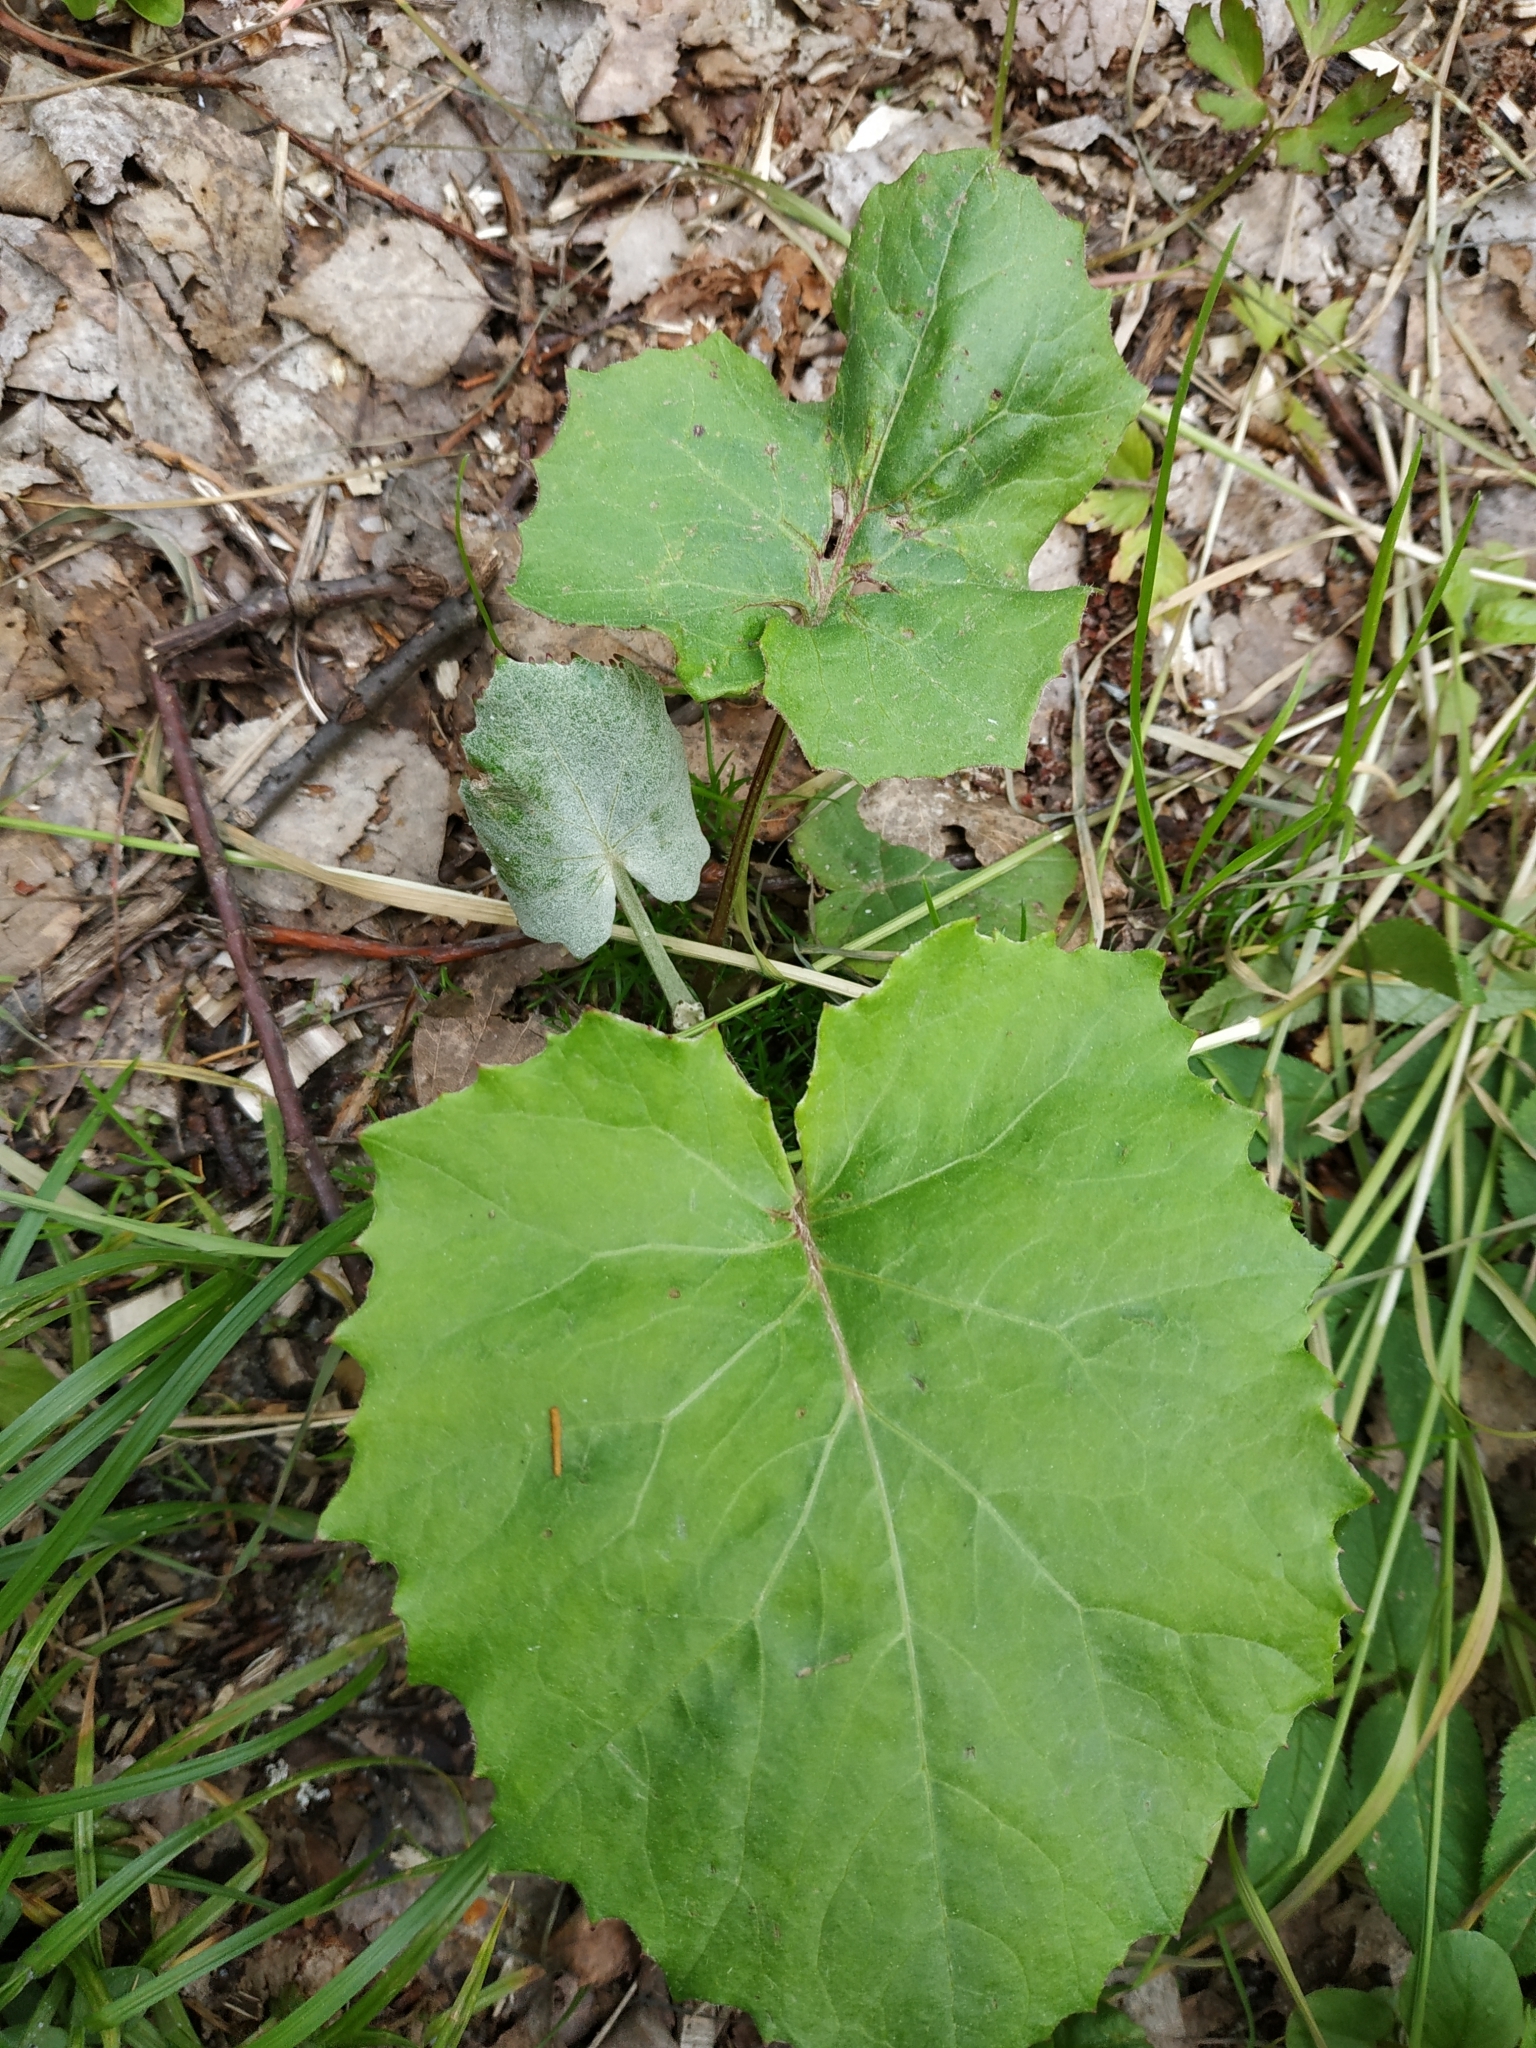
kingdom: Plantae
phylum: Tracheophyta
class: Magnoliopsida
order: Asterales
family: Asteraceae
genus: Tussilago
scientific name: Tussilago farfara
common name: Coltsfoot
